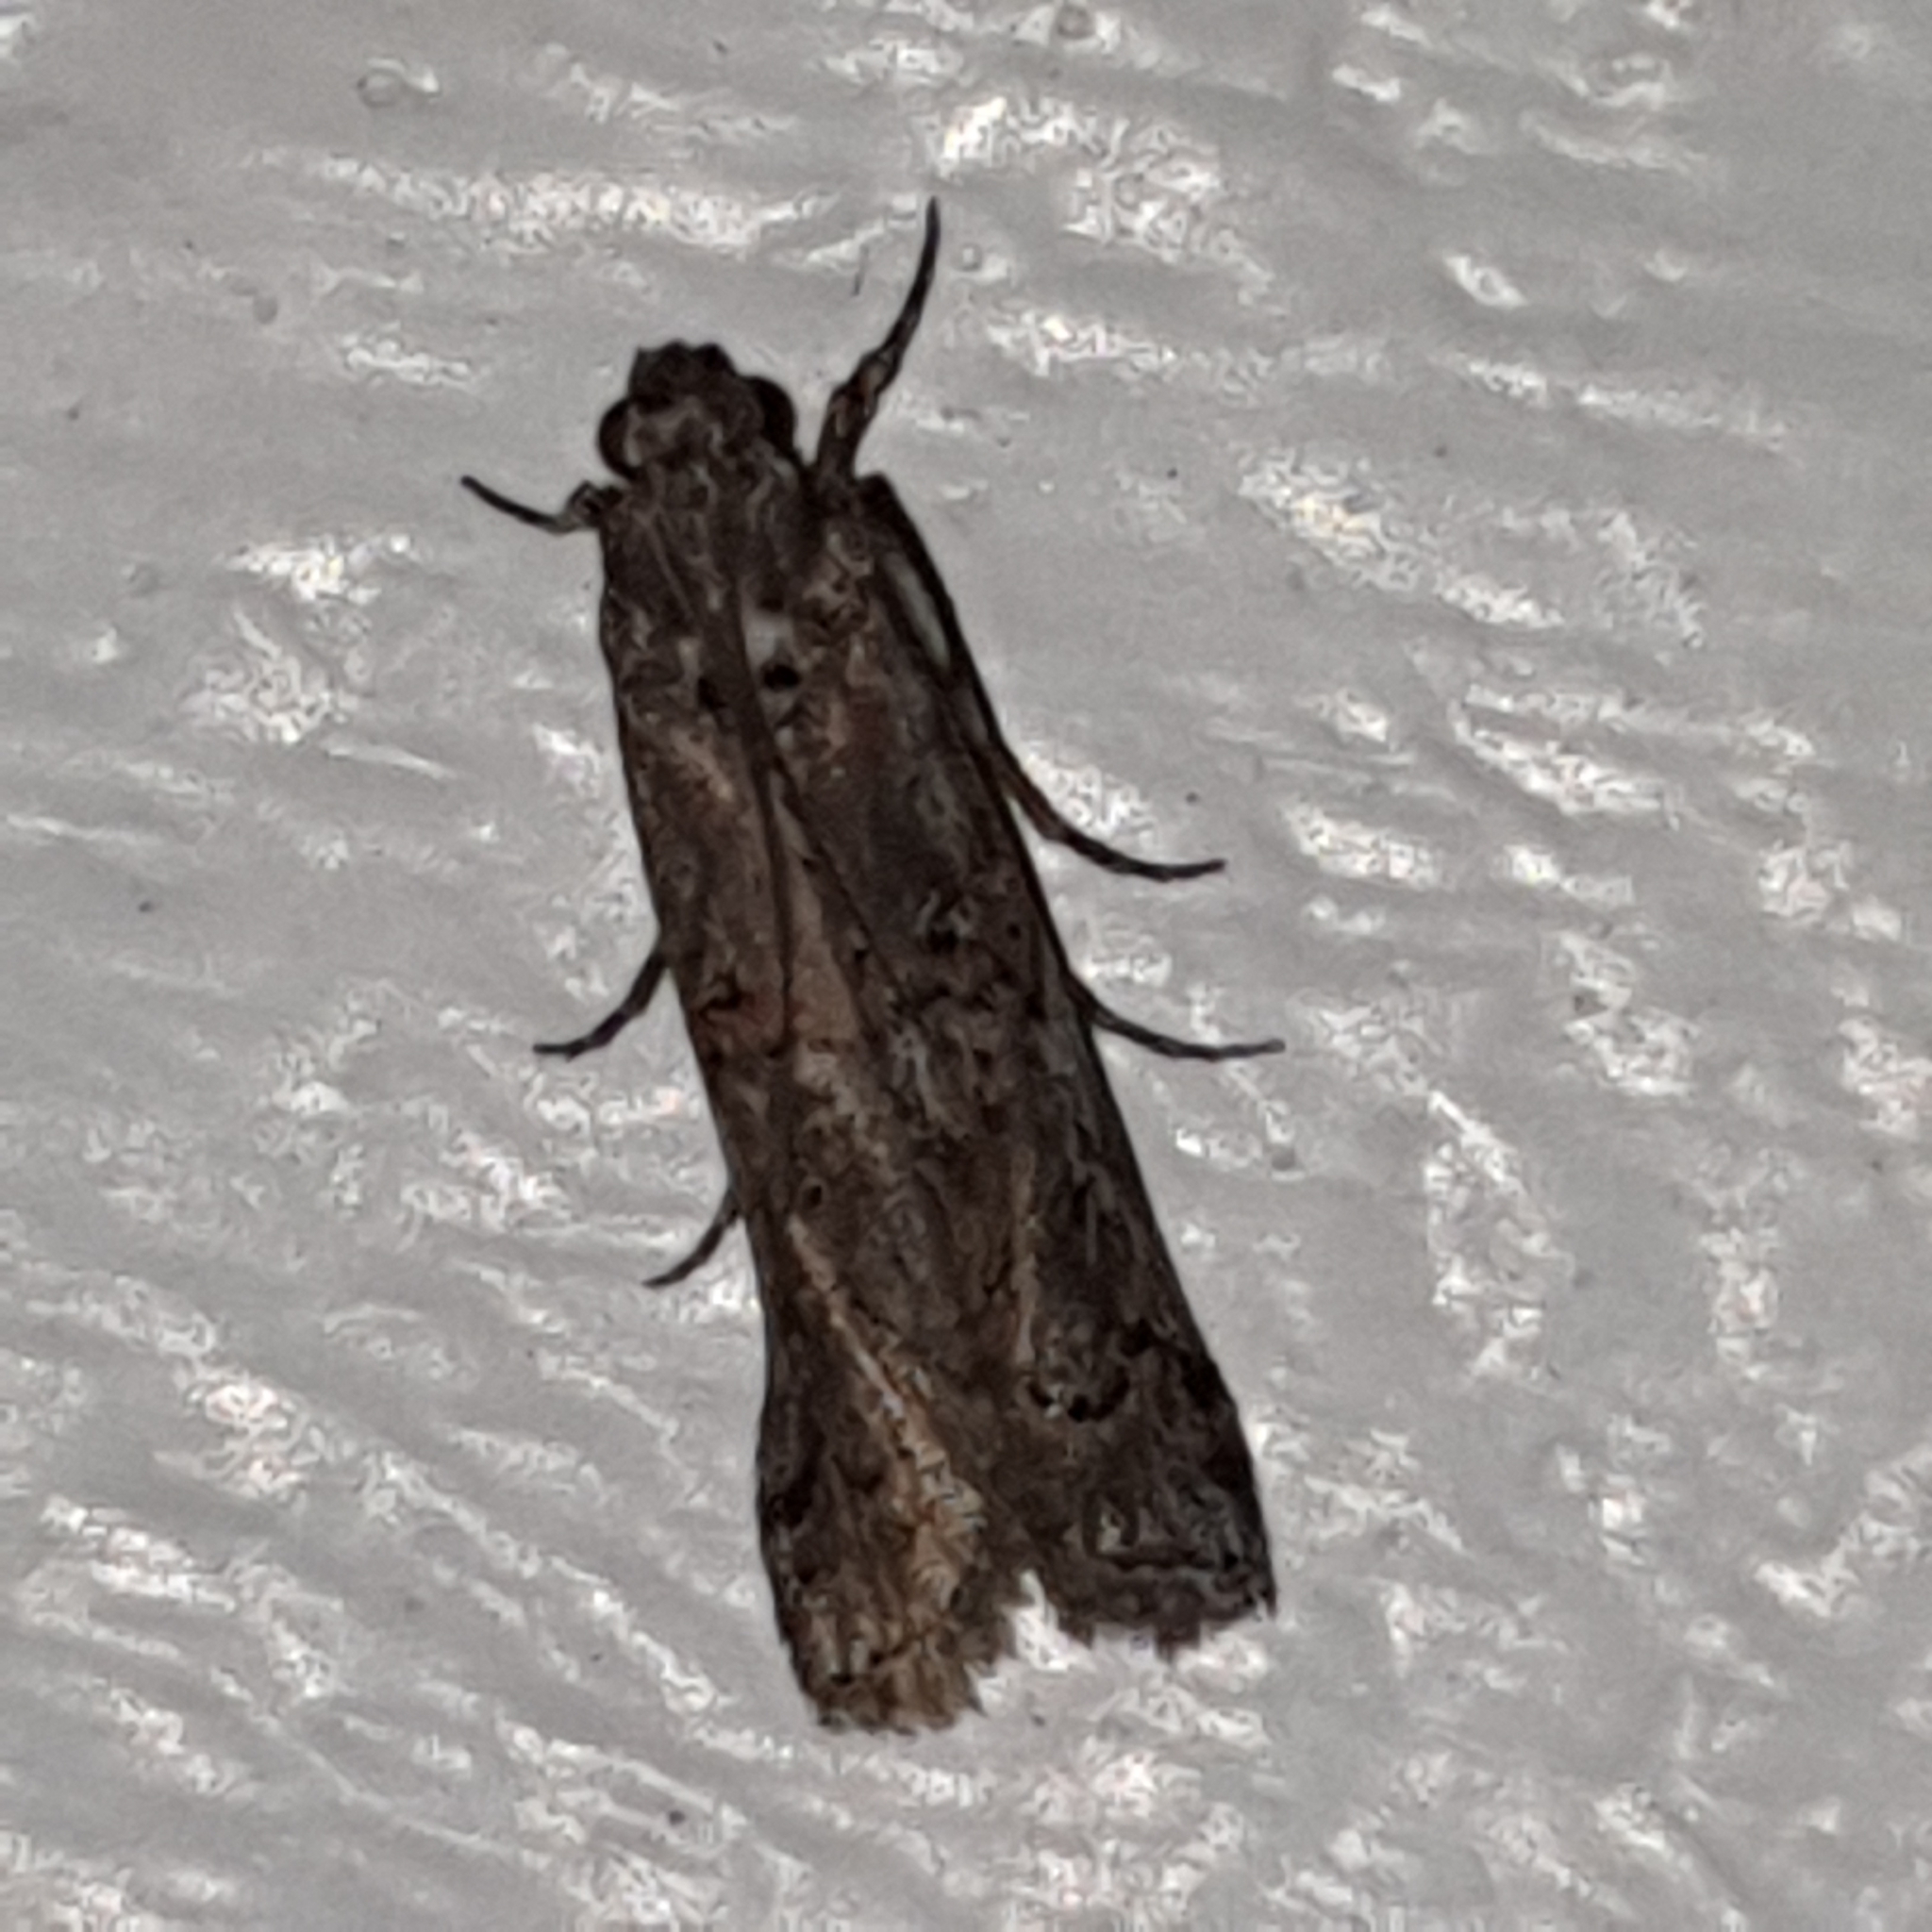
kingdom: Animalia
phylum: Arthropoda
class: Insecta
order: Lepidoptera
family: Pyralidae
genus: Pempelia
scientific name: Pempelia palumbella
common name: Heather knot-horn
